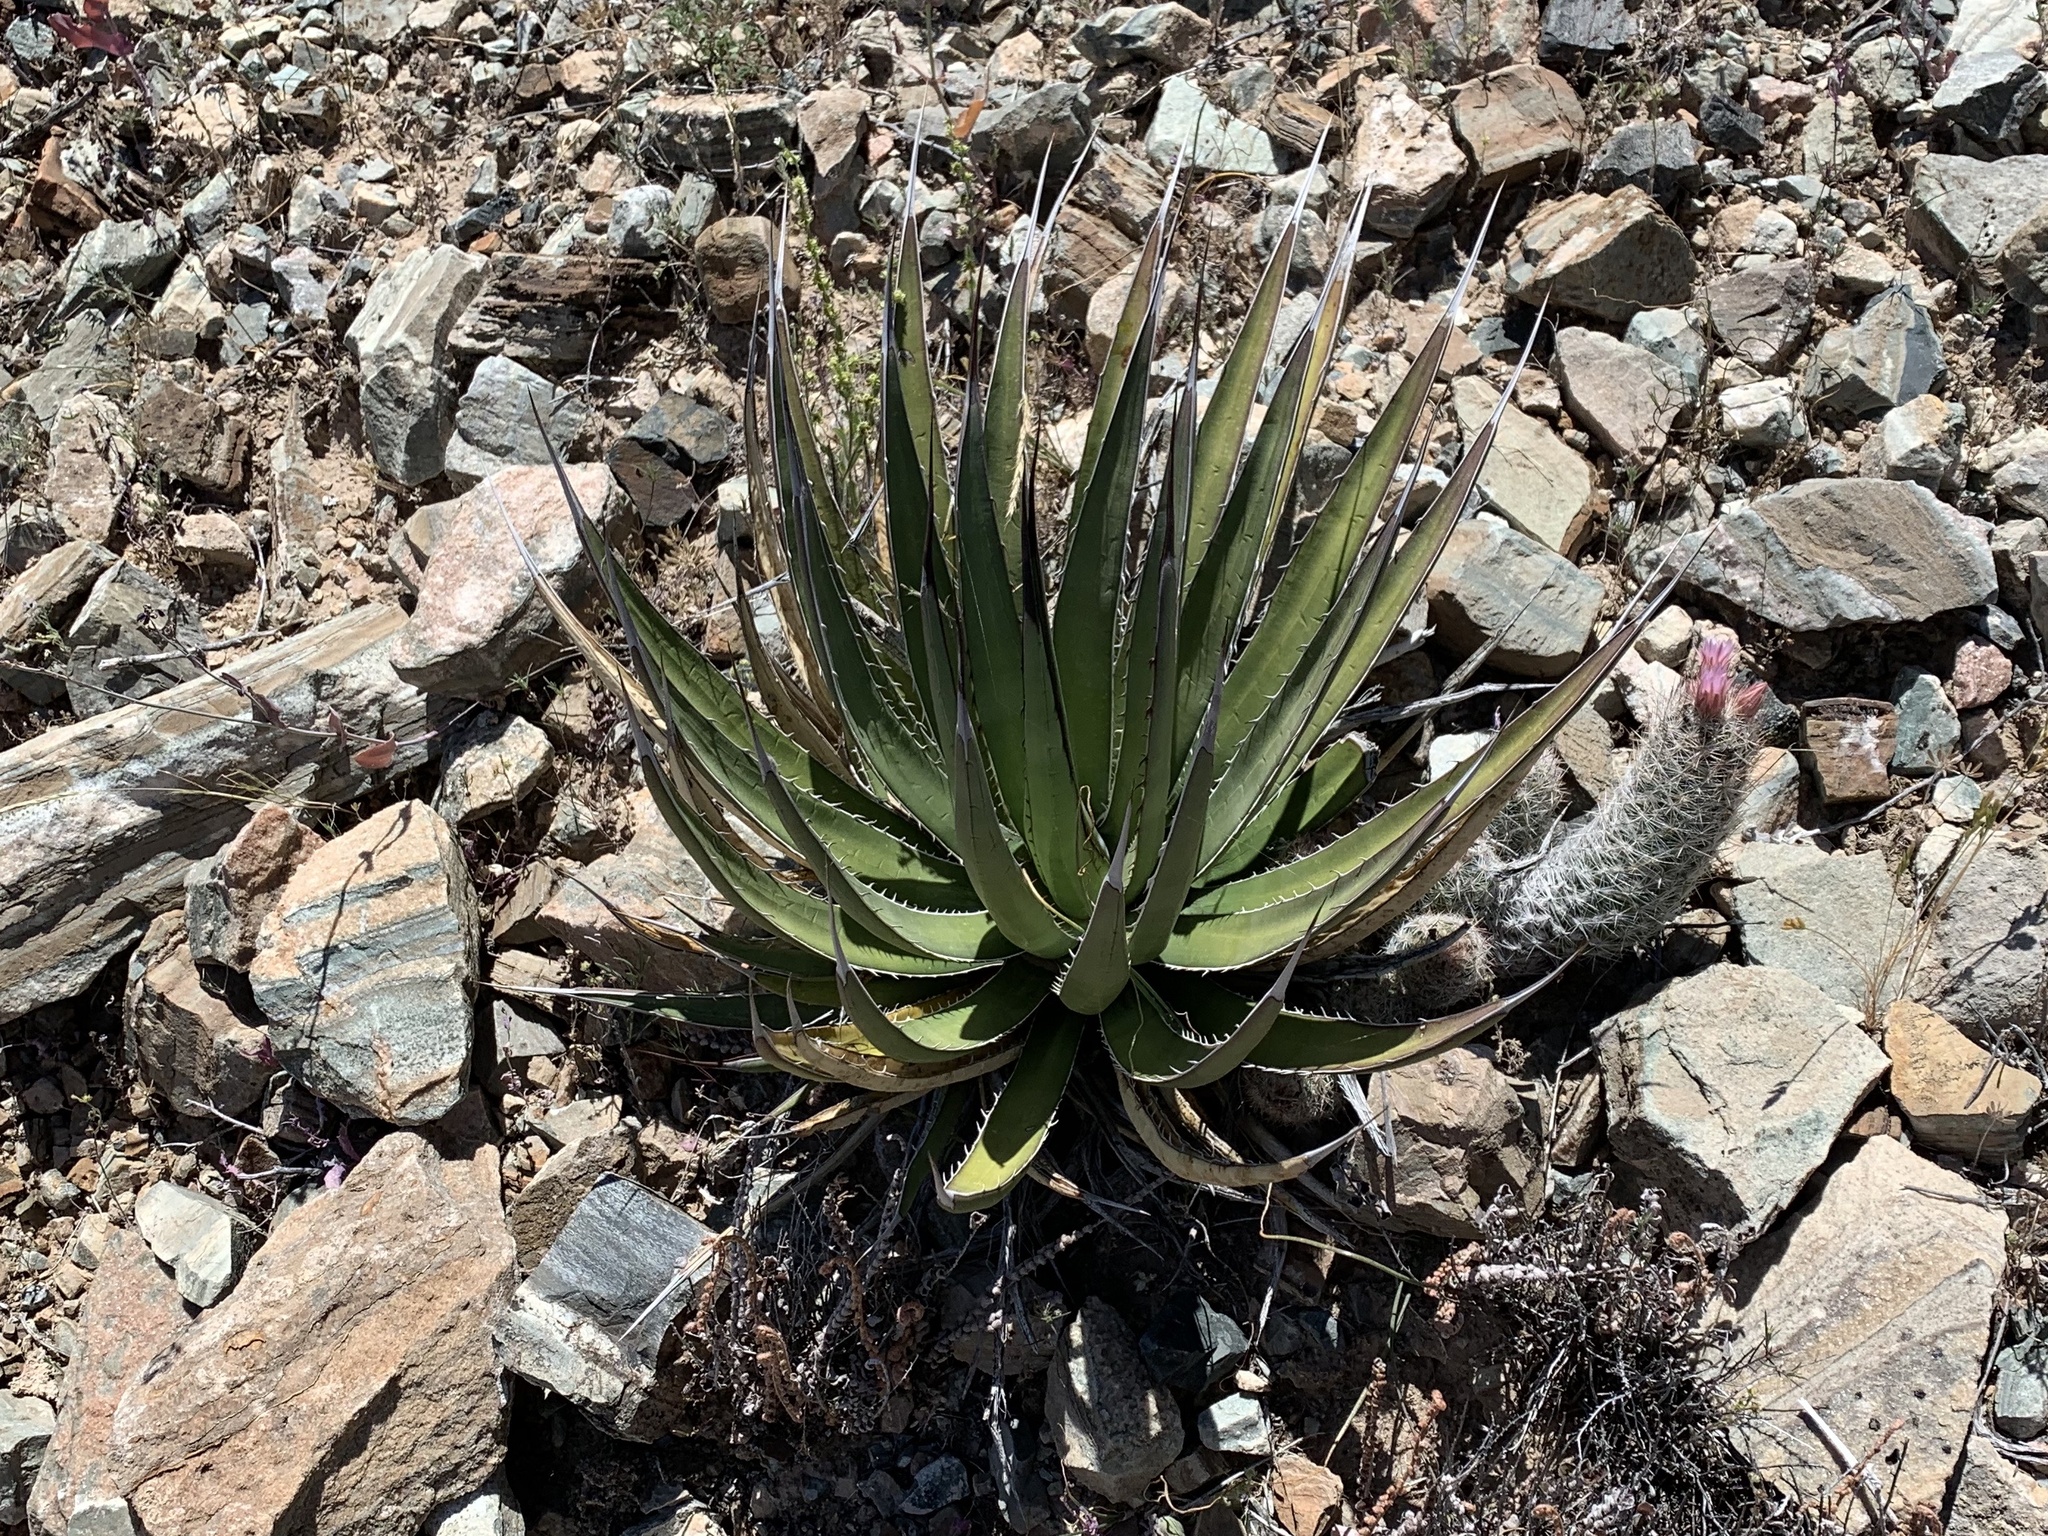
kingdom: Plantae
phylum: Tracheophyta
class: Liliopsida
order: Asparagales
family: Asparagaceae
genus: Agave
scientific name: Agave lechuguilla
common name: Lecheguilla agave
